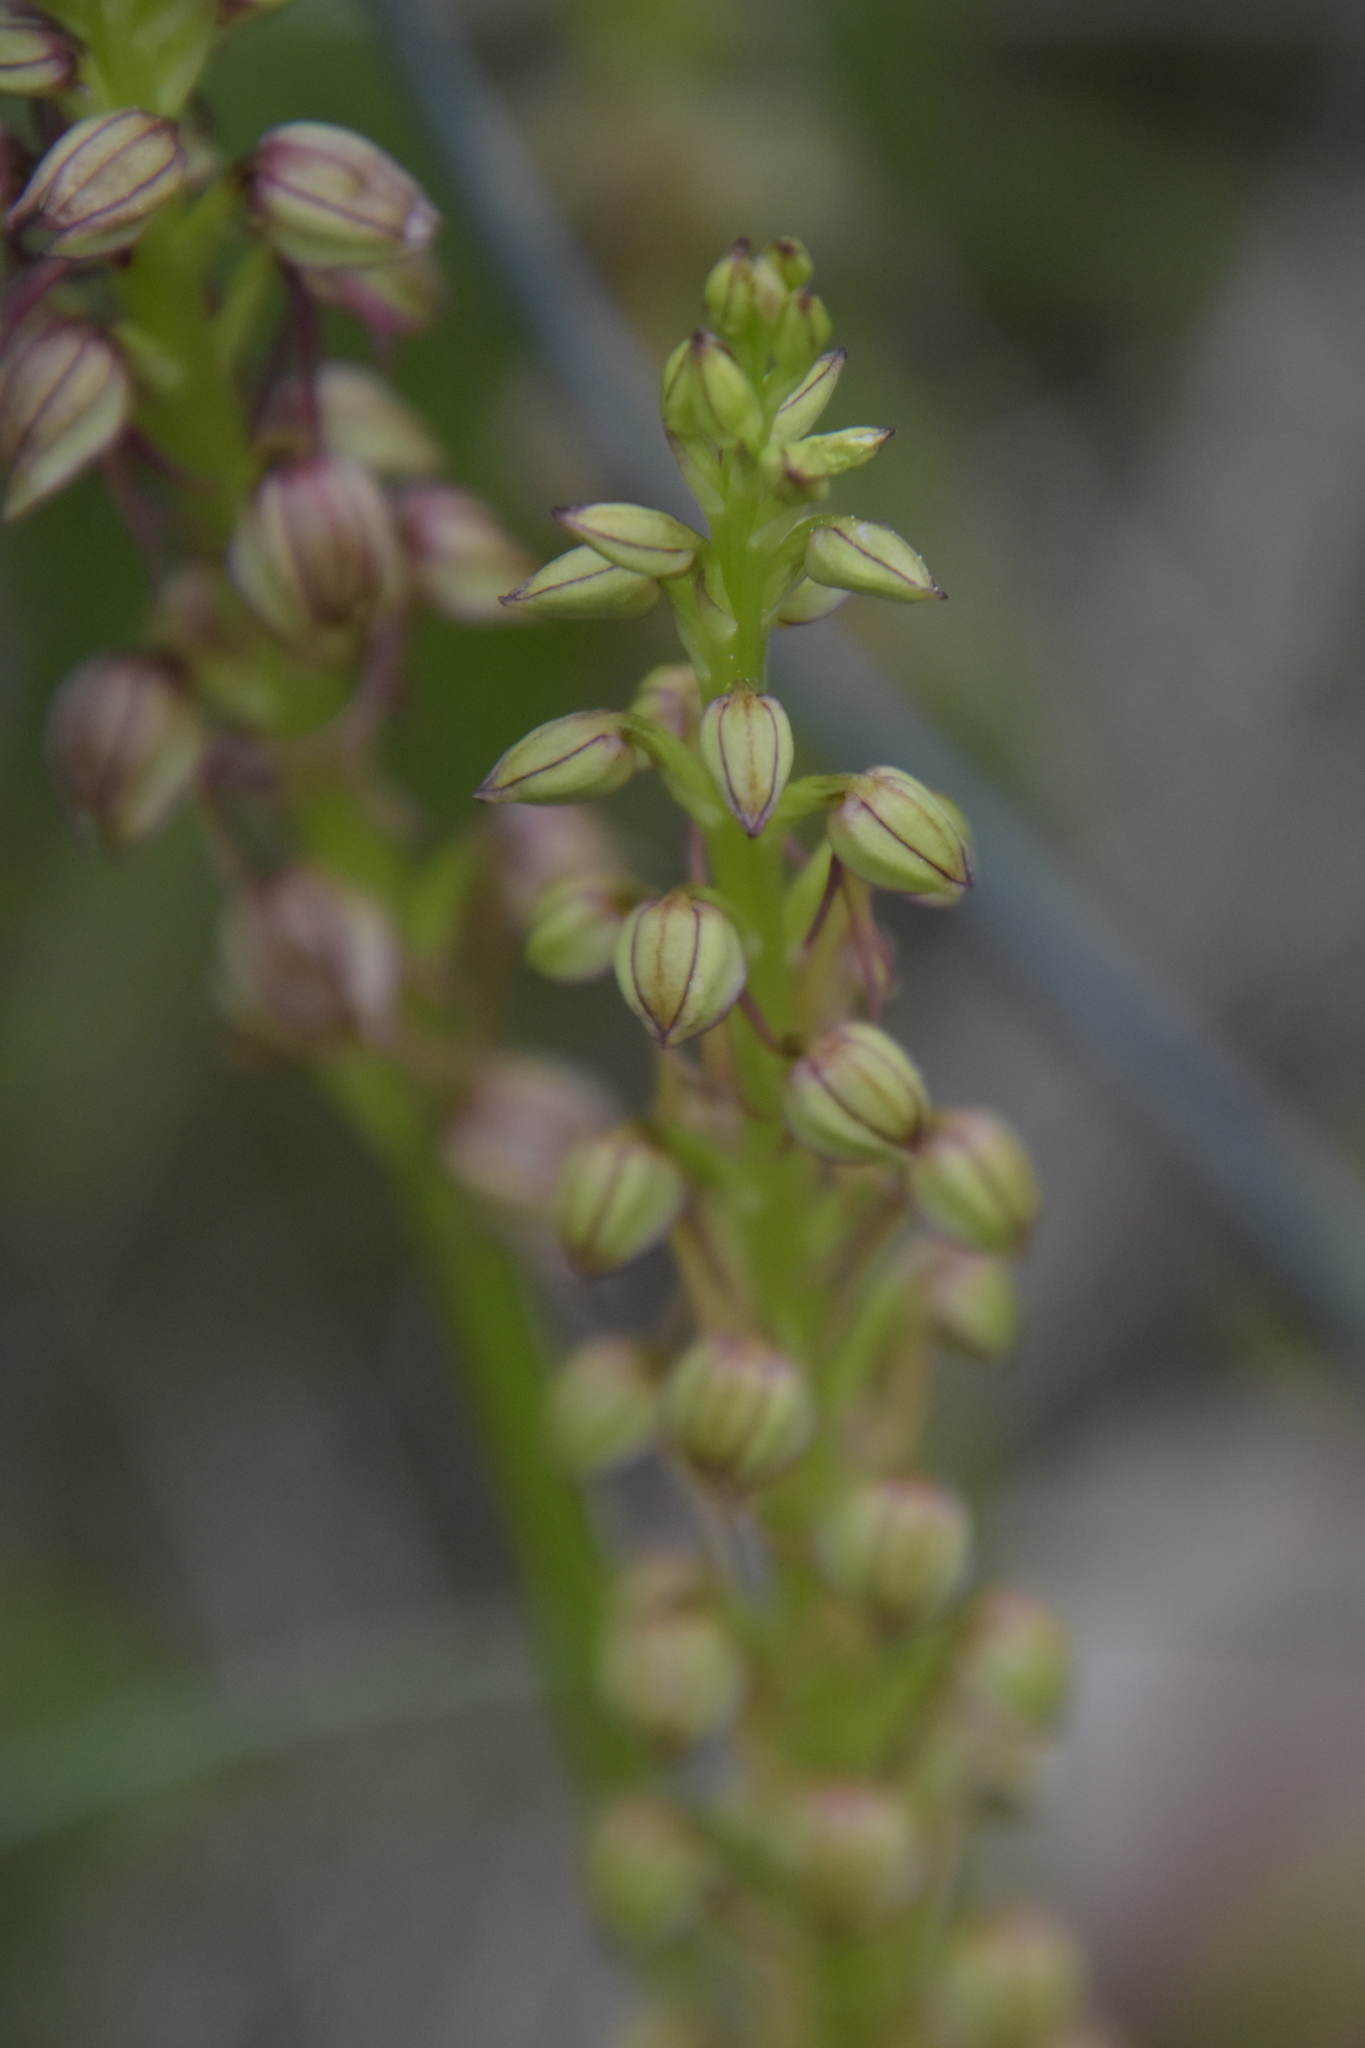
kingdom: Plantae
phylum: Tracheophyta
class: Liliopsida
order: Asparagales
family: Orchidaceae
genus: Orchis
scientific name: Orchis anthropophora
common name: Man orchid
